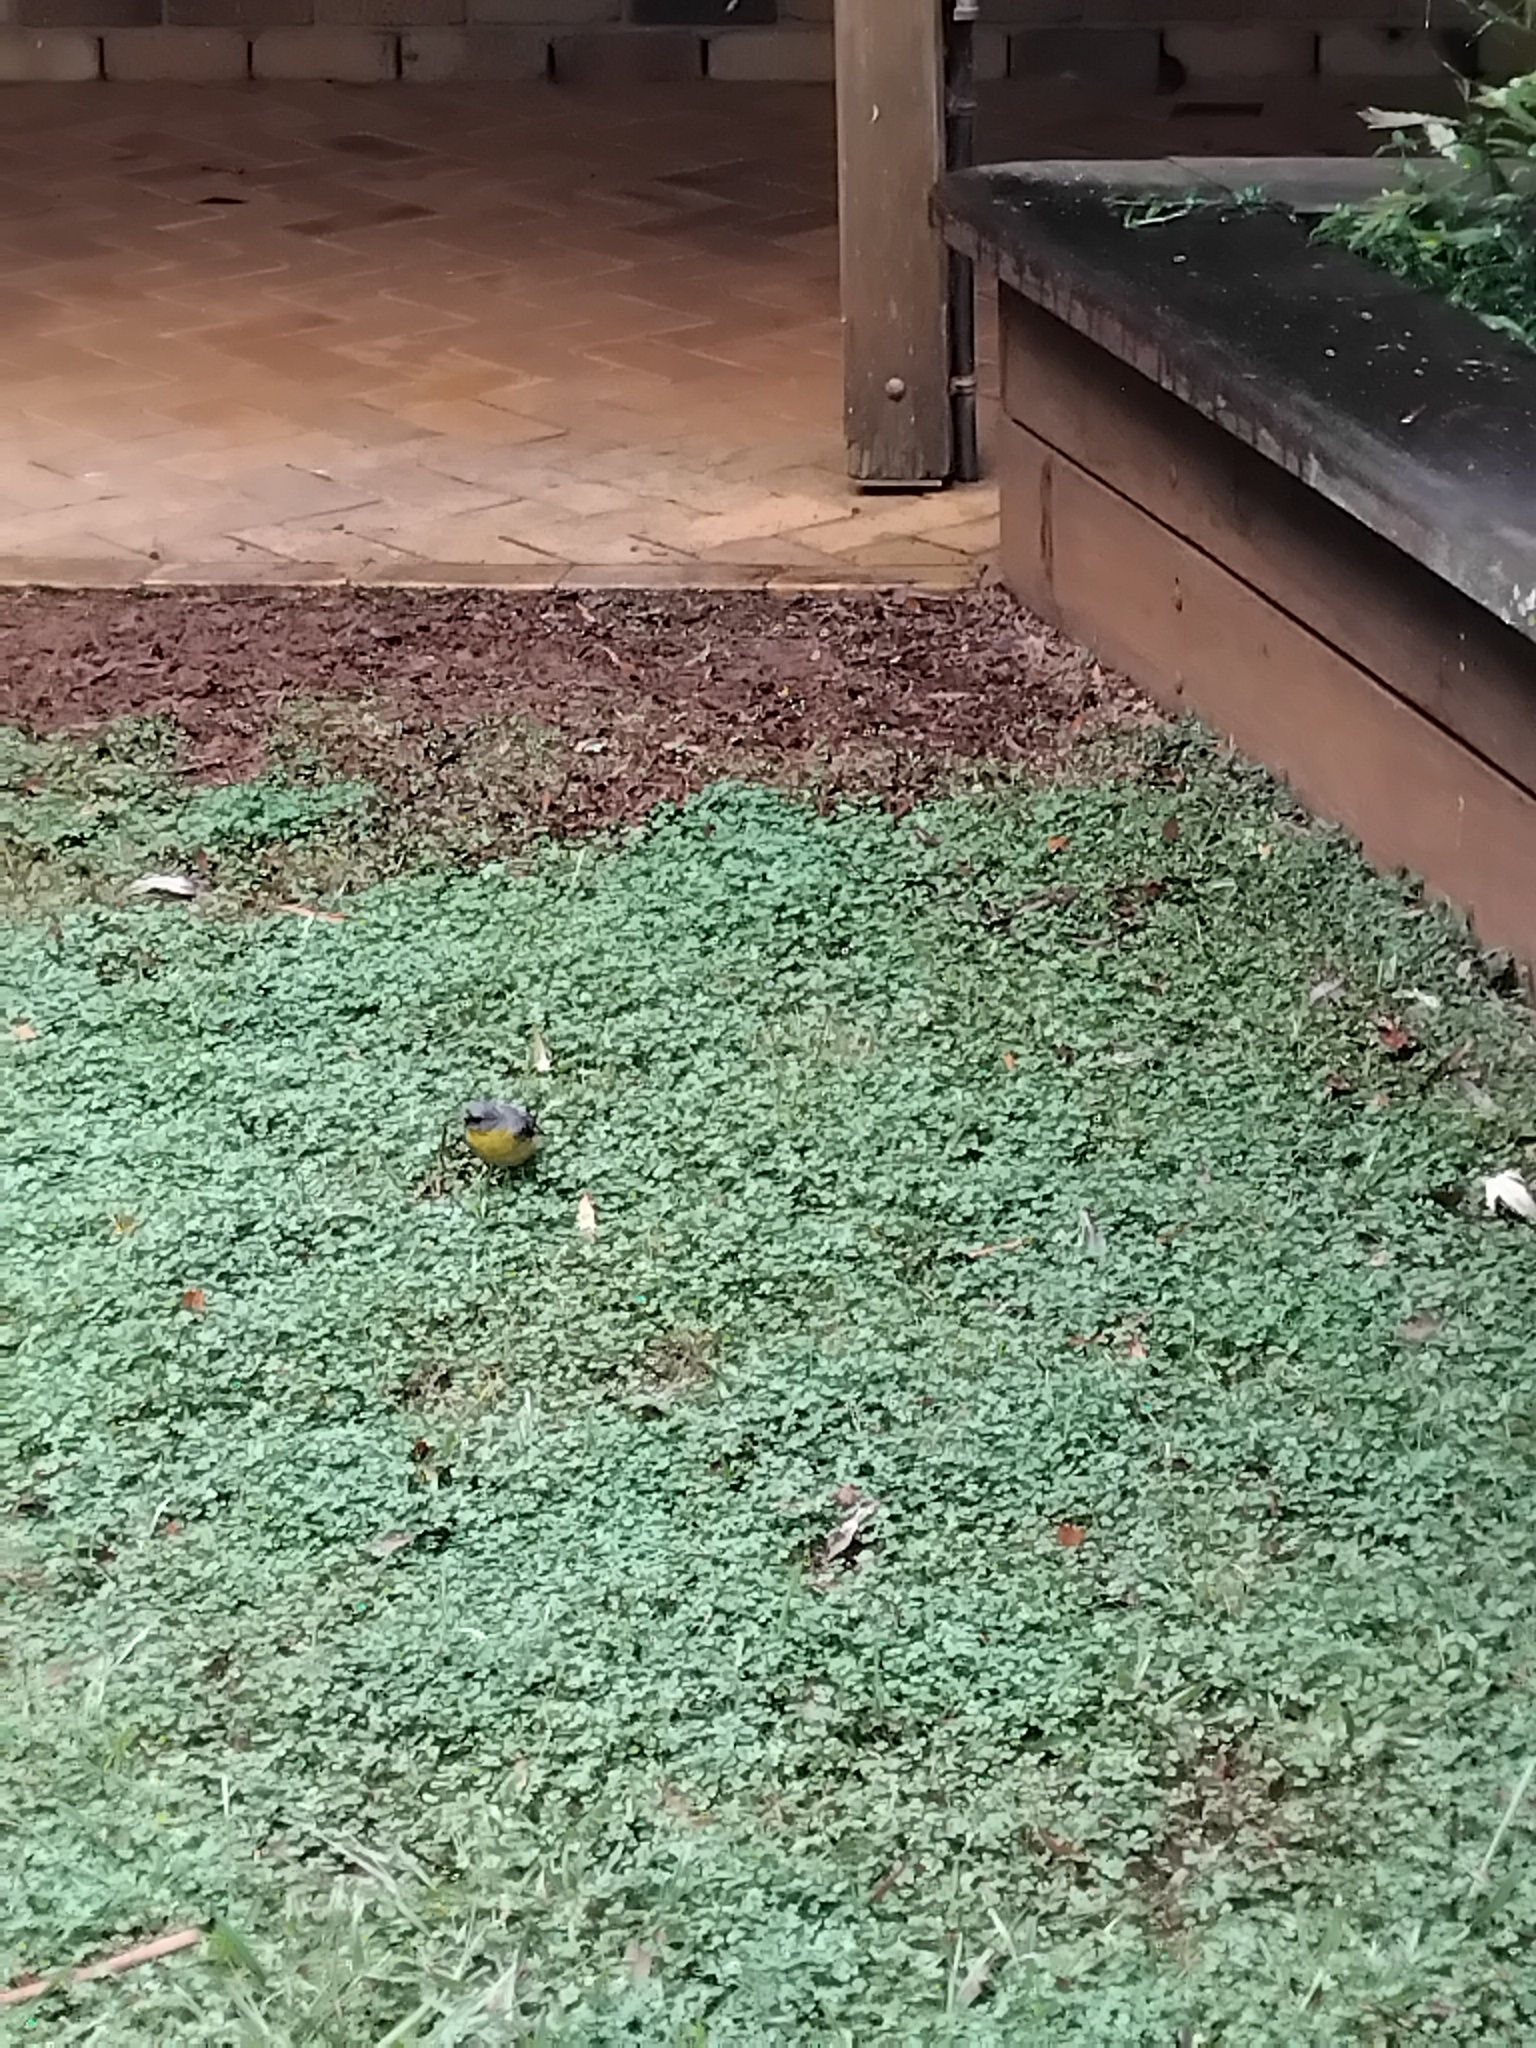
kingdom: Animalia
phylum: Chordata
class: Aves
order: Passeriformes
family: Petroicidae
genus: Eopsaltria
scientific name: Eopsaltria australis
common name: Eastern yellow robin
